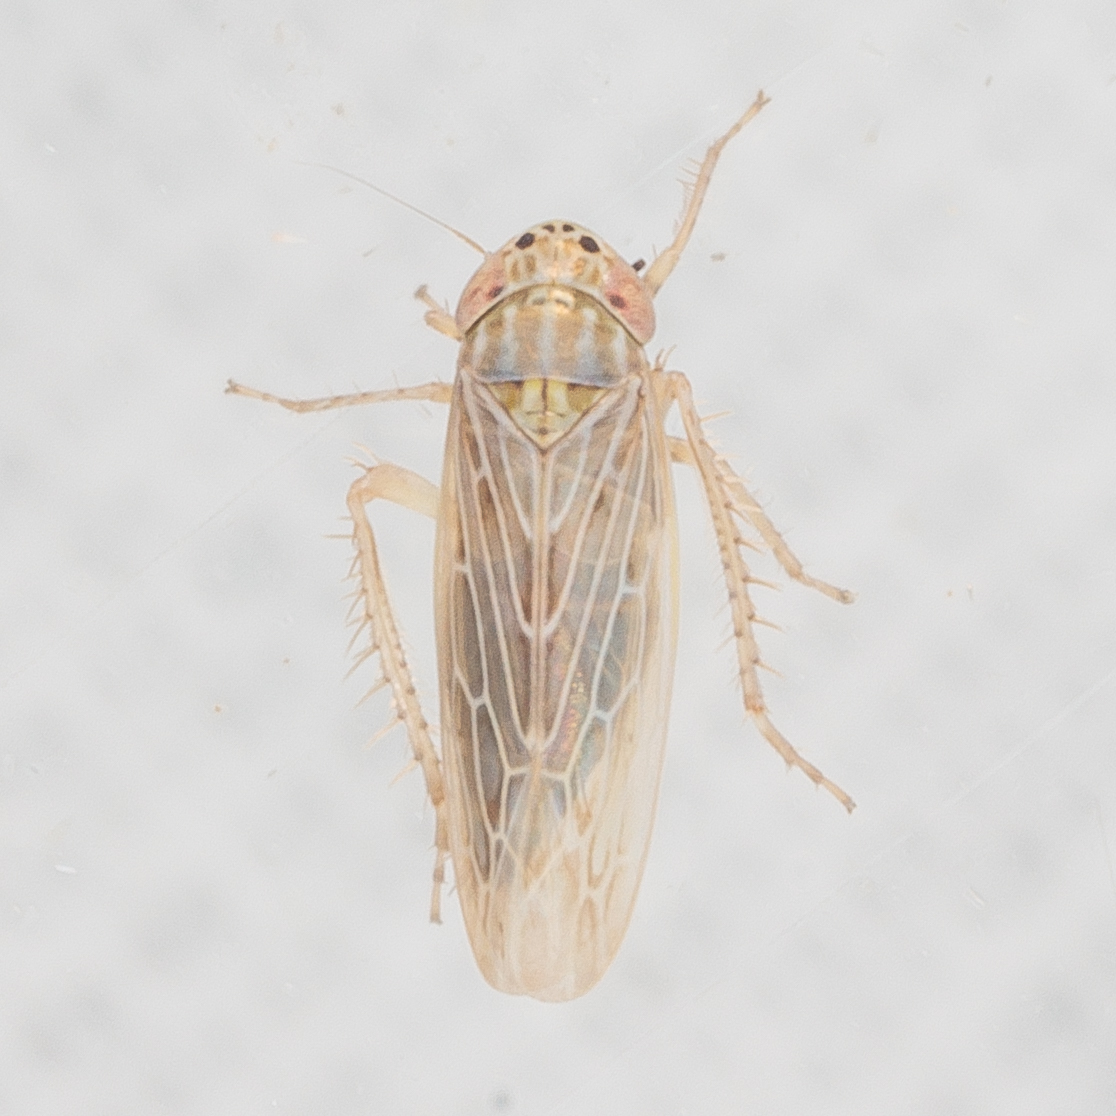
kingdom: Animalia
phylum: Arthropoda
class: Insecta
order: Hemiptera
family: Cicadellidae
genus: Graminella
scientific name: Graminella sonora
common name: Lesser lawn leafhopper
